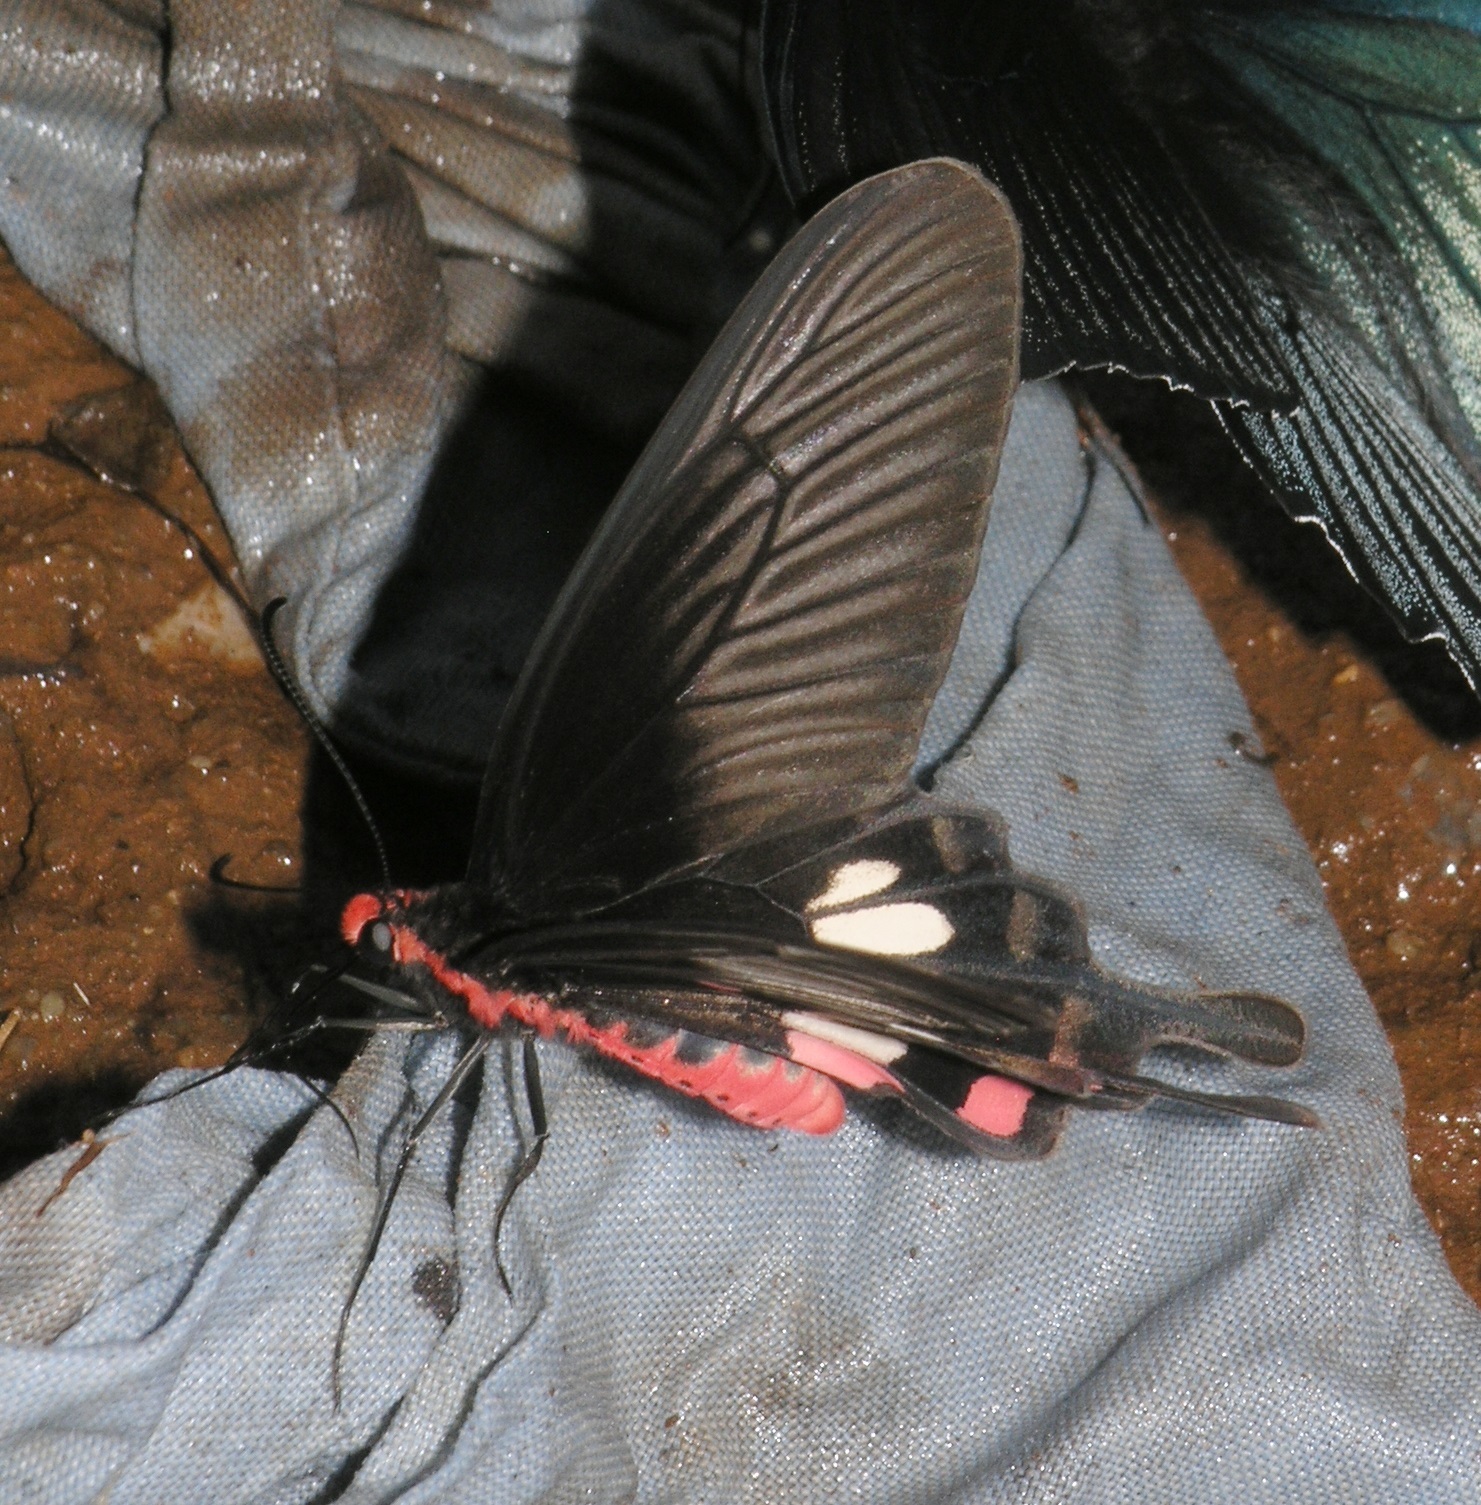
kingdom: Animalia
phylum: Arthropoda
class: Insecta
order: Lepidoptera
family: Papilionidae
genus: Pachliopta
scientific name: Pachliopta aristolochiae
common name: Common rose
